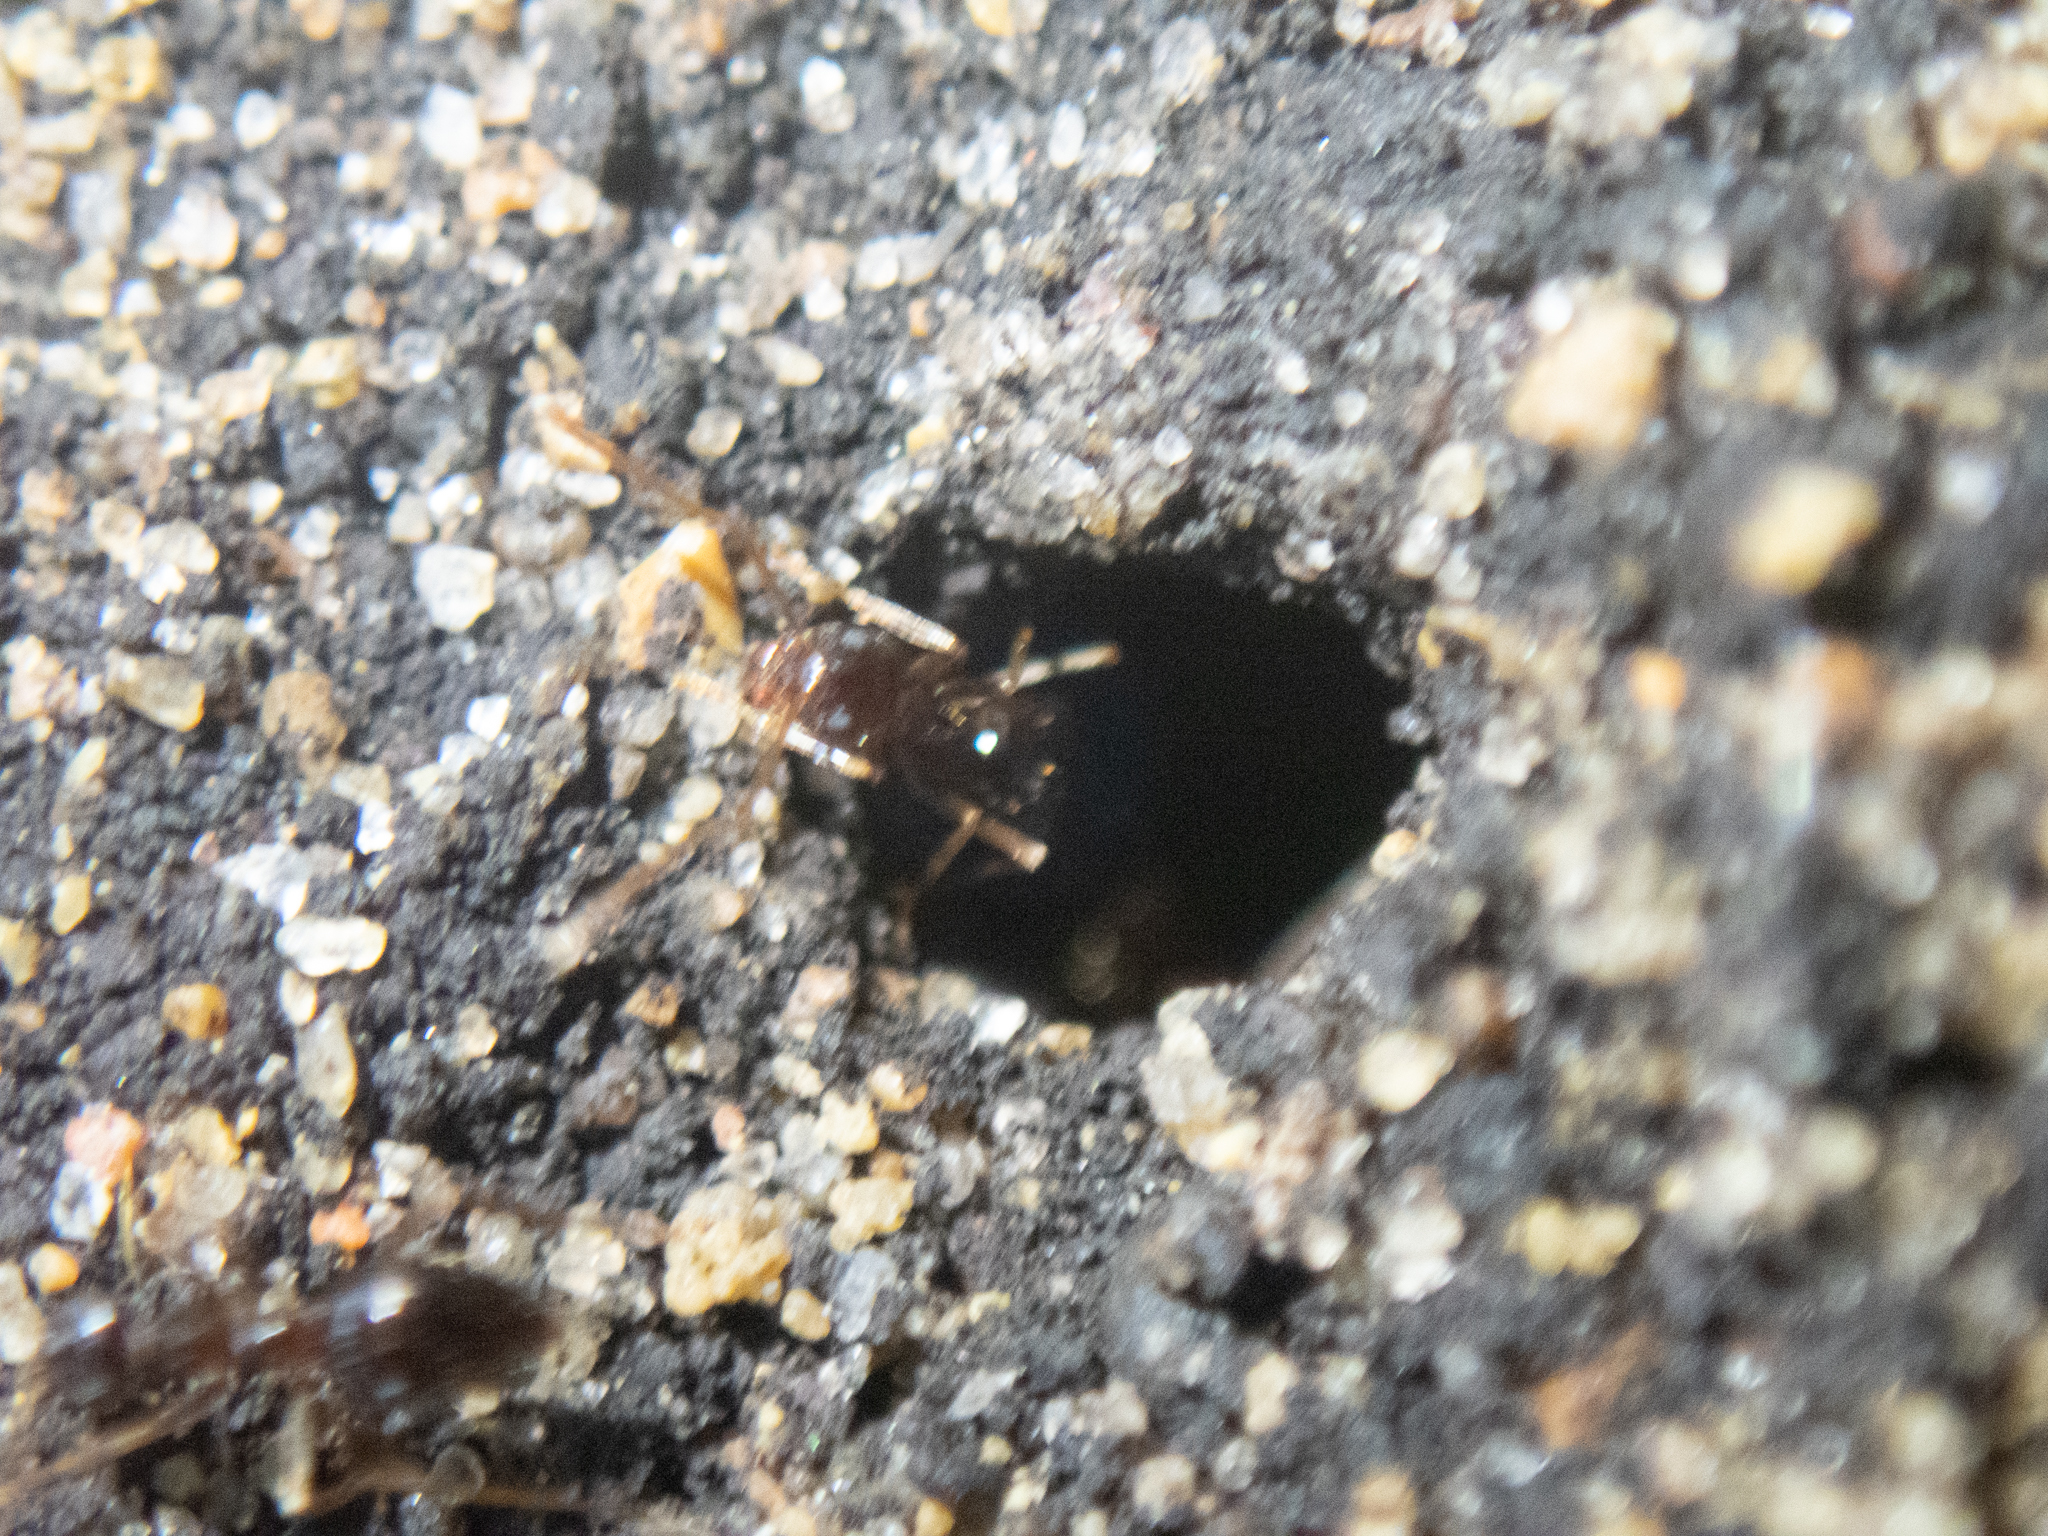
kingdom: Animalia
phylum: Arthropoda
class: Insecta
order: Hymenoptera
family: Formicidae
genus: Prenolepis
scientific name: Prenolepis imparis
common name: Small honey ant
